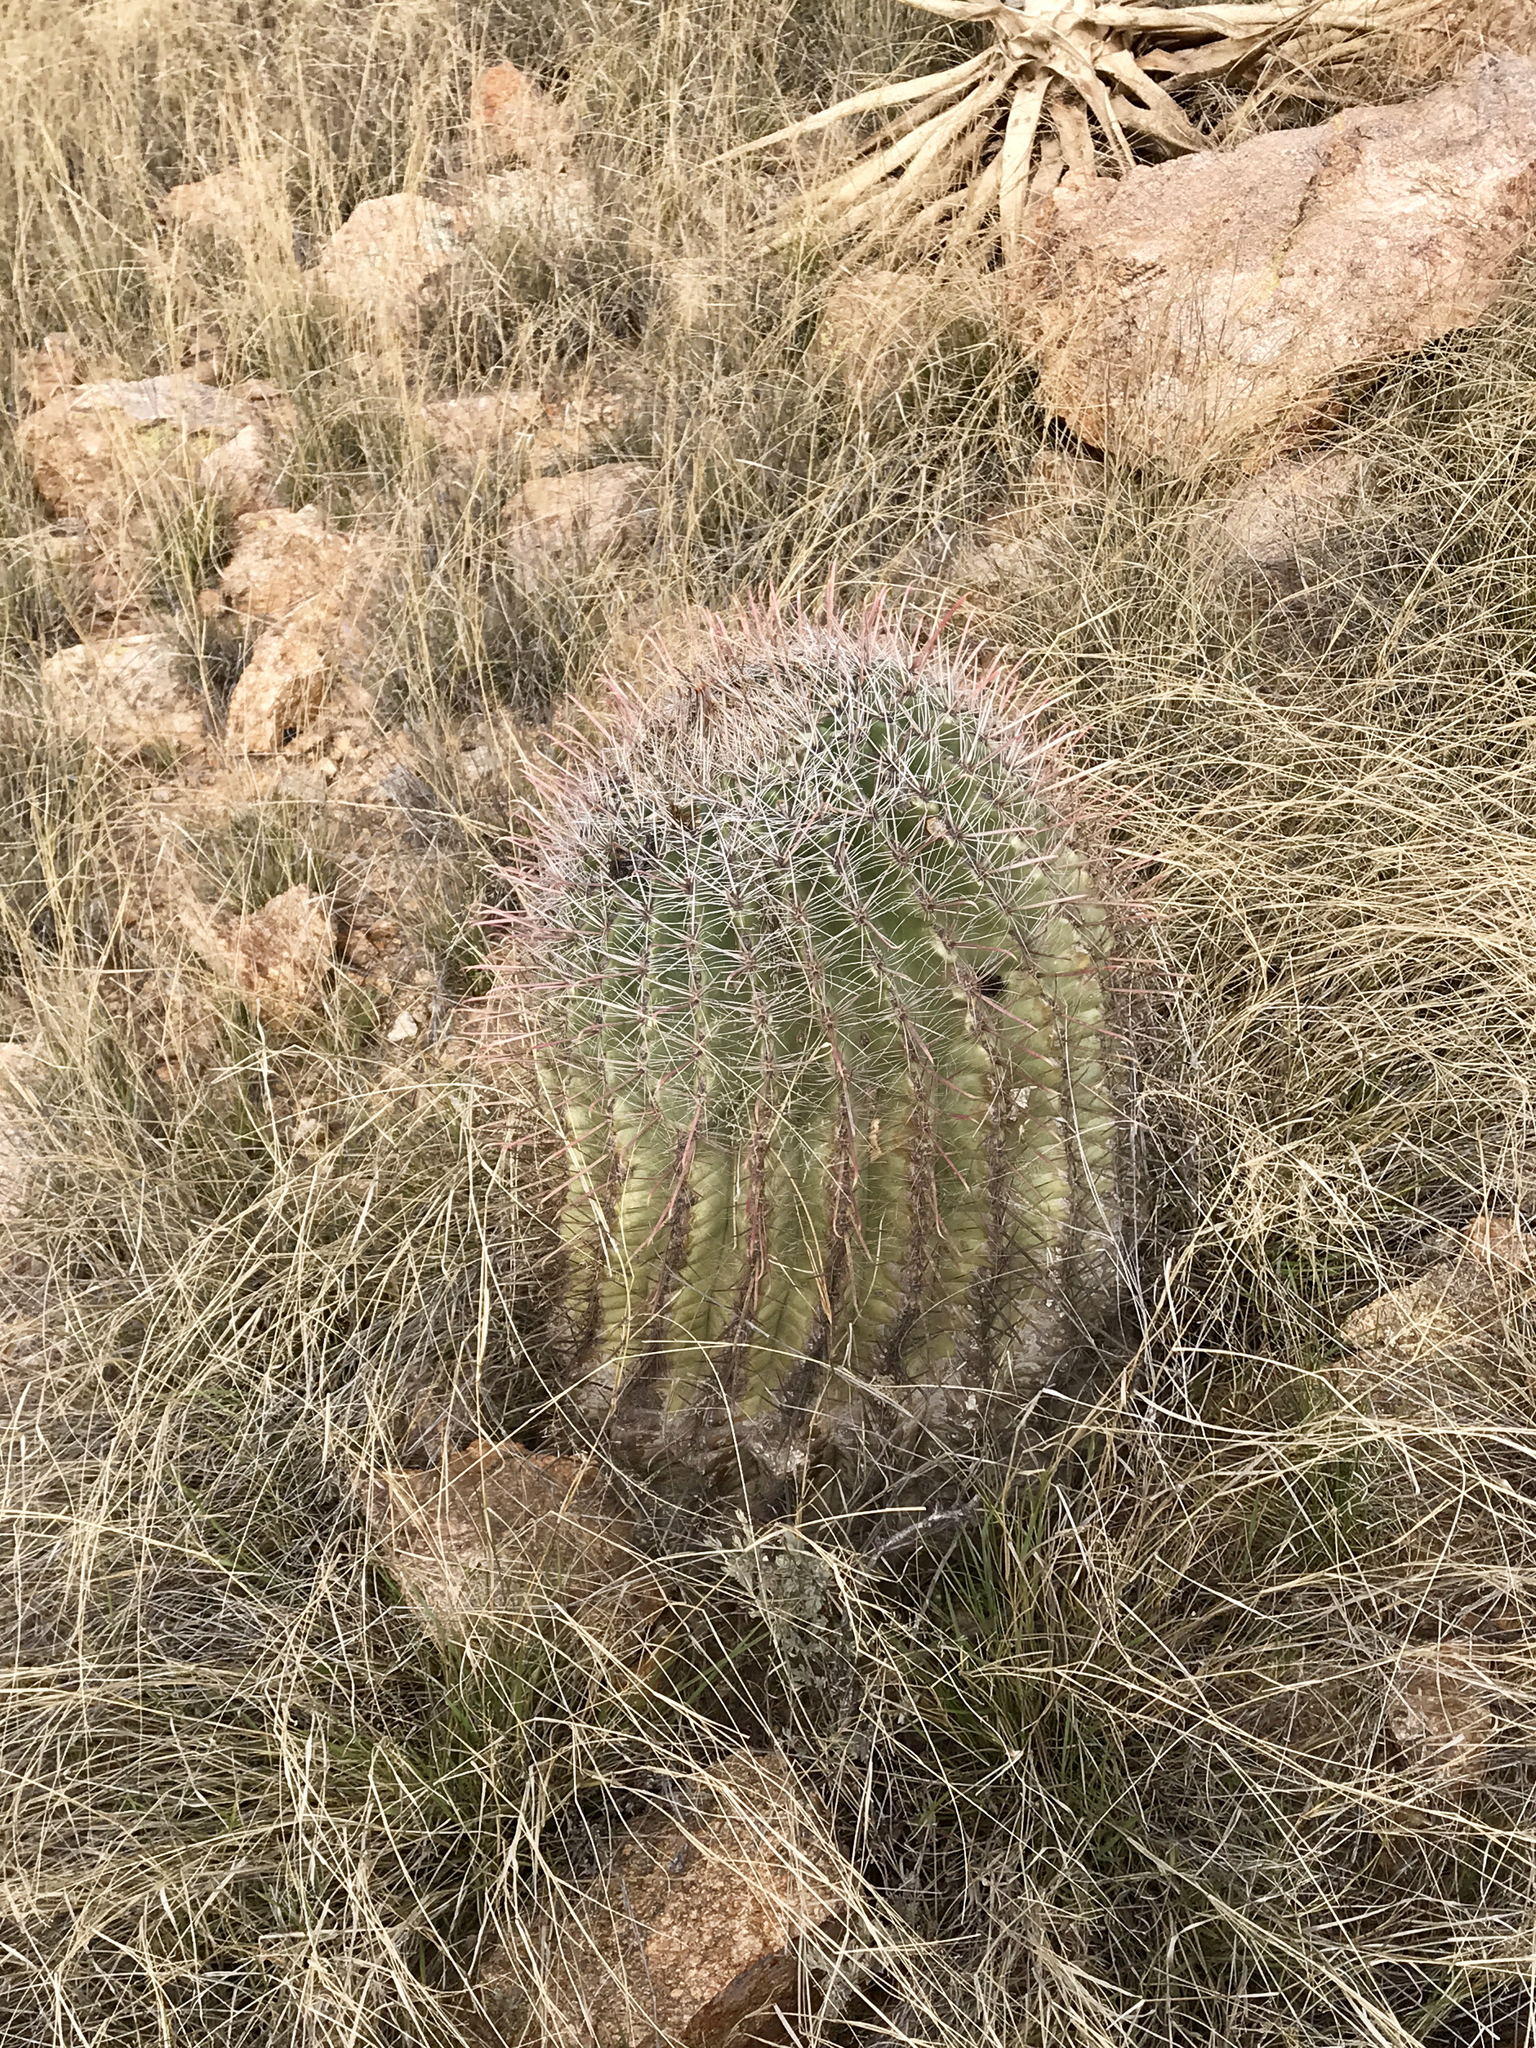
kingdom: Plantae
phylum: Tracheophyta
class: Magnoliopsida
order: Caryophyllales
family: Cactaceae
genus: Ferocactus
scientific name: Ferocactus wislizeni
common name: Candy barrel cactus
